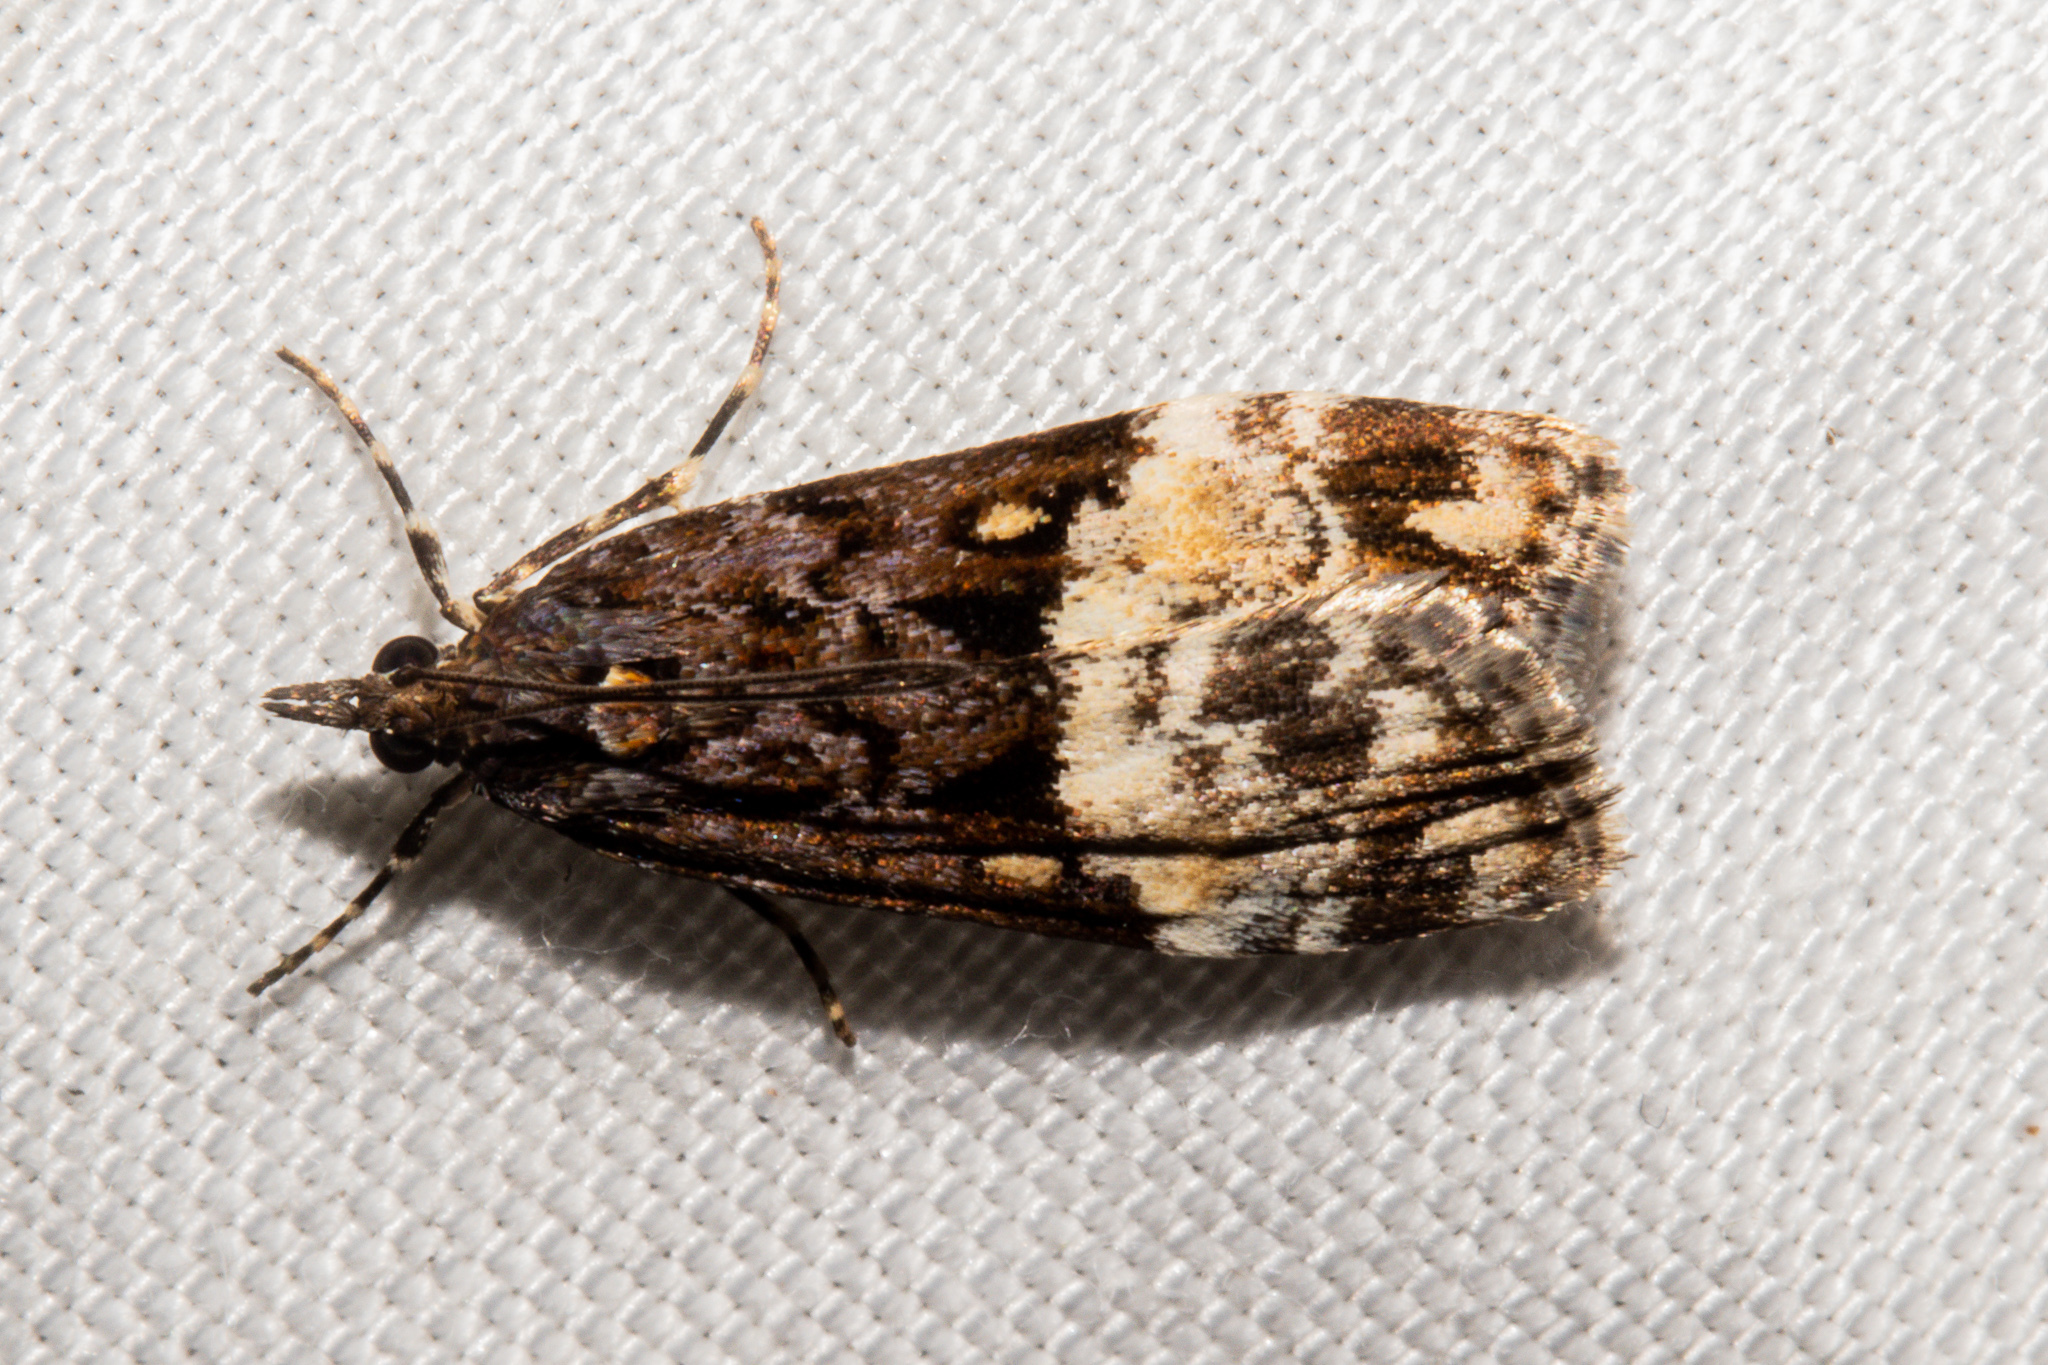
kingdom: Animalia
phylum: Arthropoda
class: Insecta
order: Lepidoptera
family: Crambidae
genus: Scoparia
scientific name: Scoparia minusculalis
